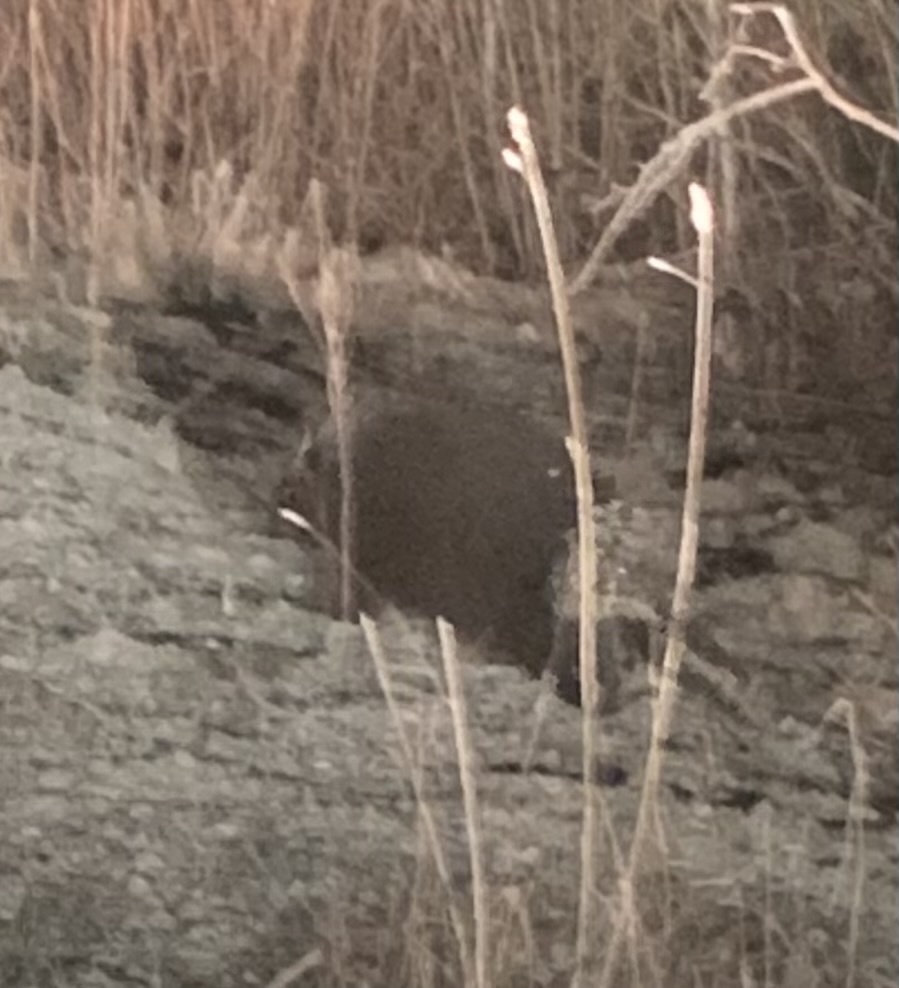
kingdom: Animalia
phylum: Chordata
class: Mammalia
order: Rodentia
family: Erethizontidae
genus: Erethizon
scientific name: Erethizon dorsatus
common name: North american porcupine
